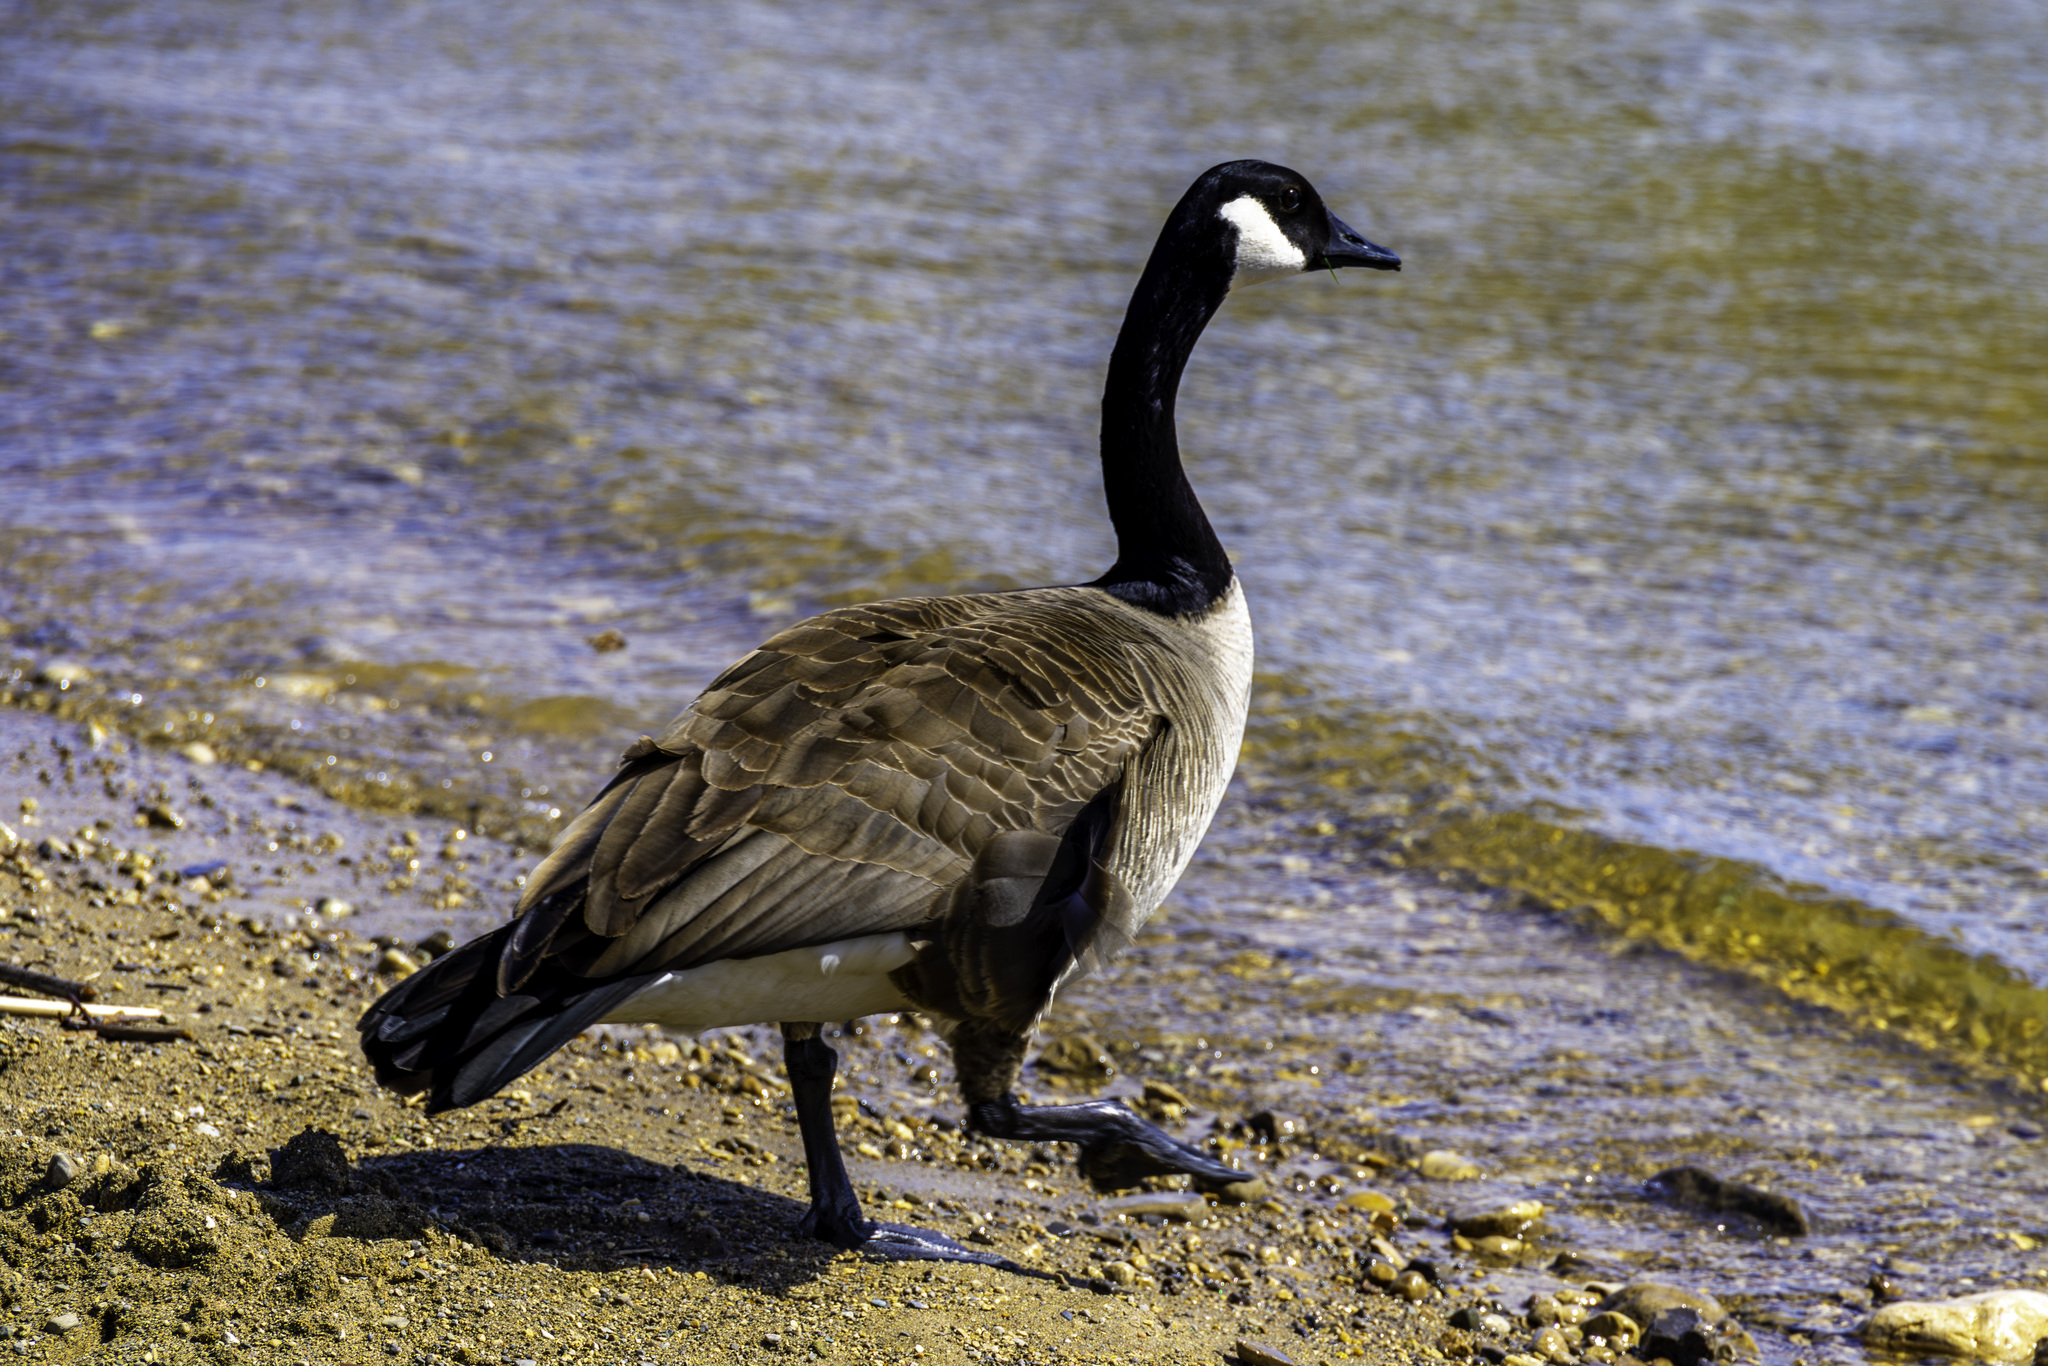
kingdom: Animalia
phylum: Chordata
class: Aves
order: Anseriformes
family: Anatidae
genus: Branta
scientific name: Branta canadensis
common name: Canada goose
